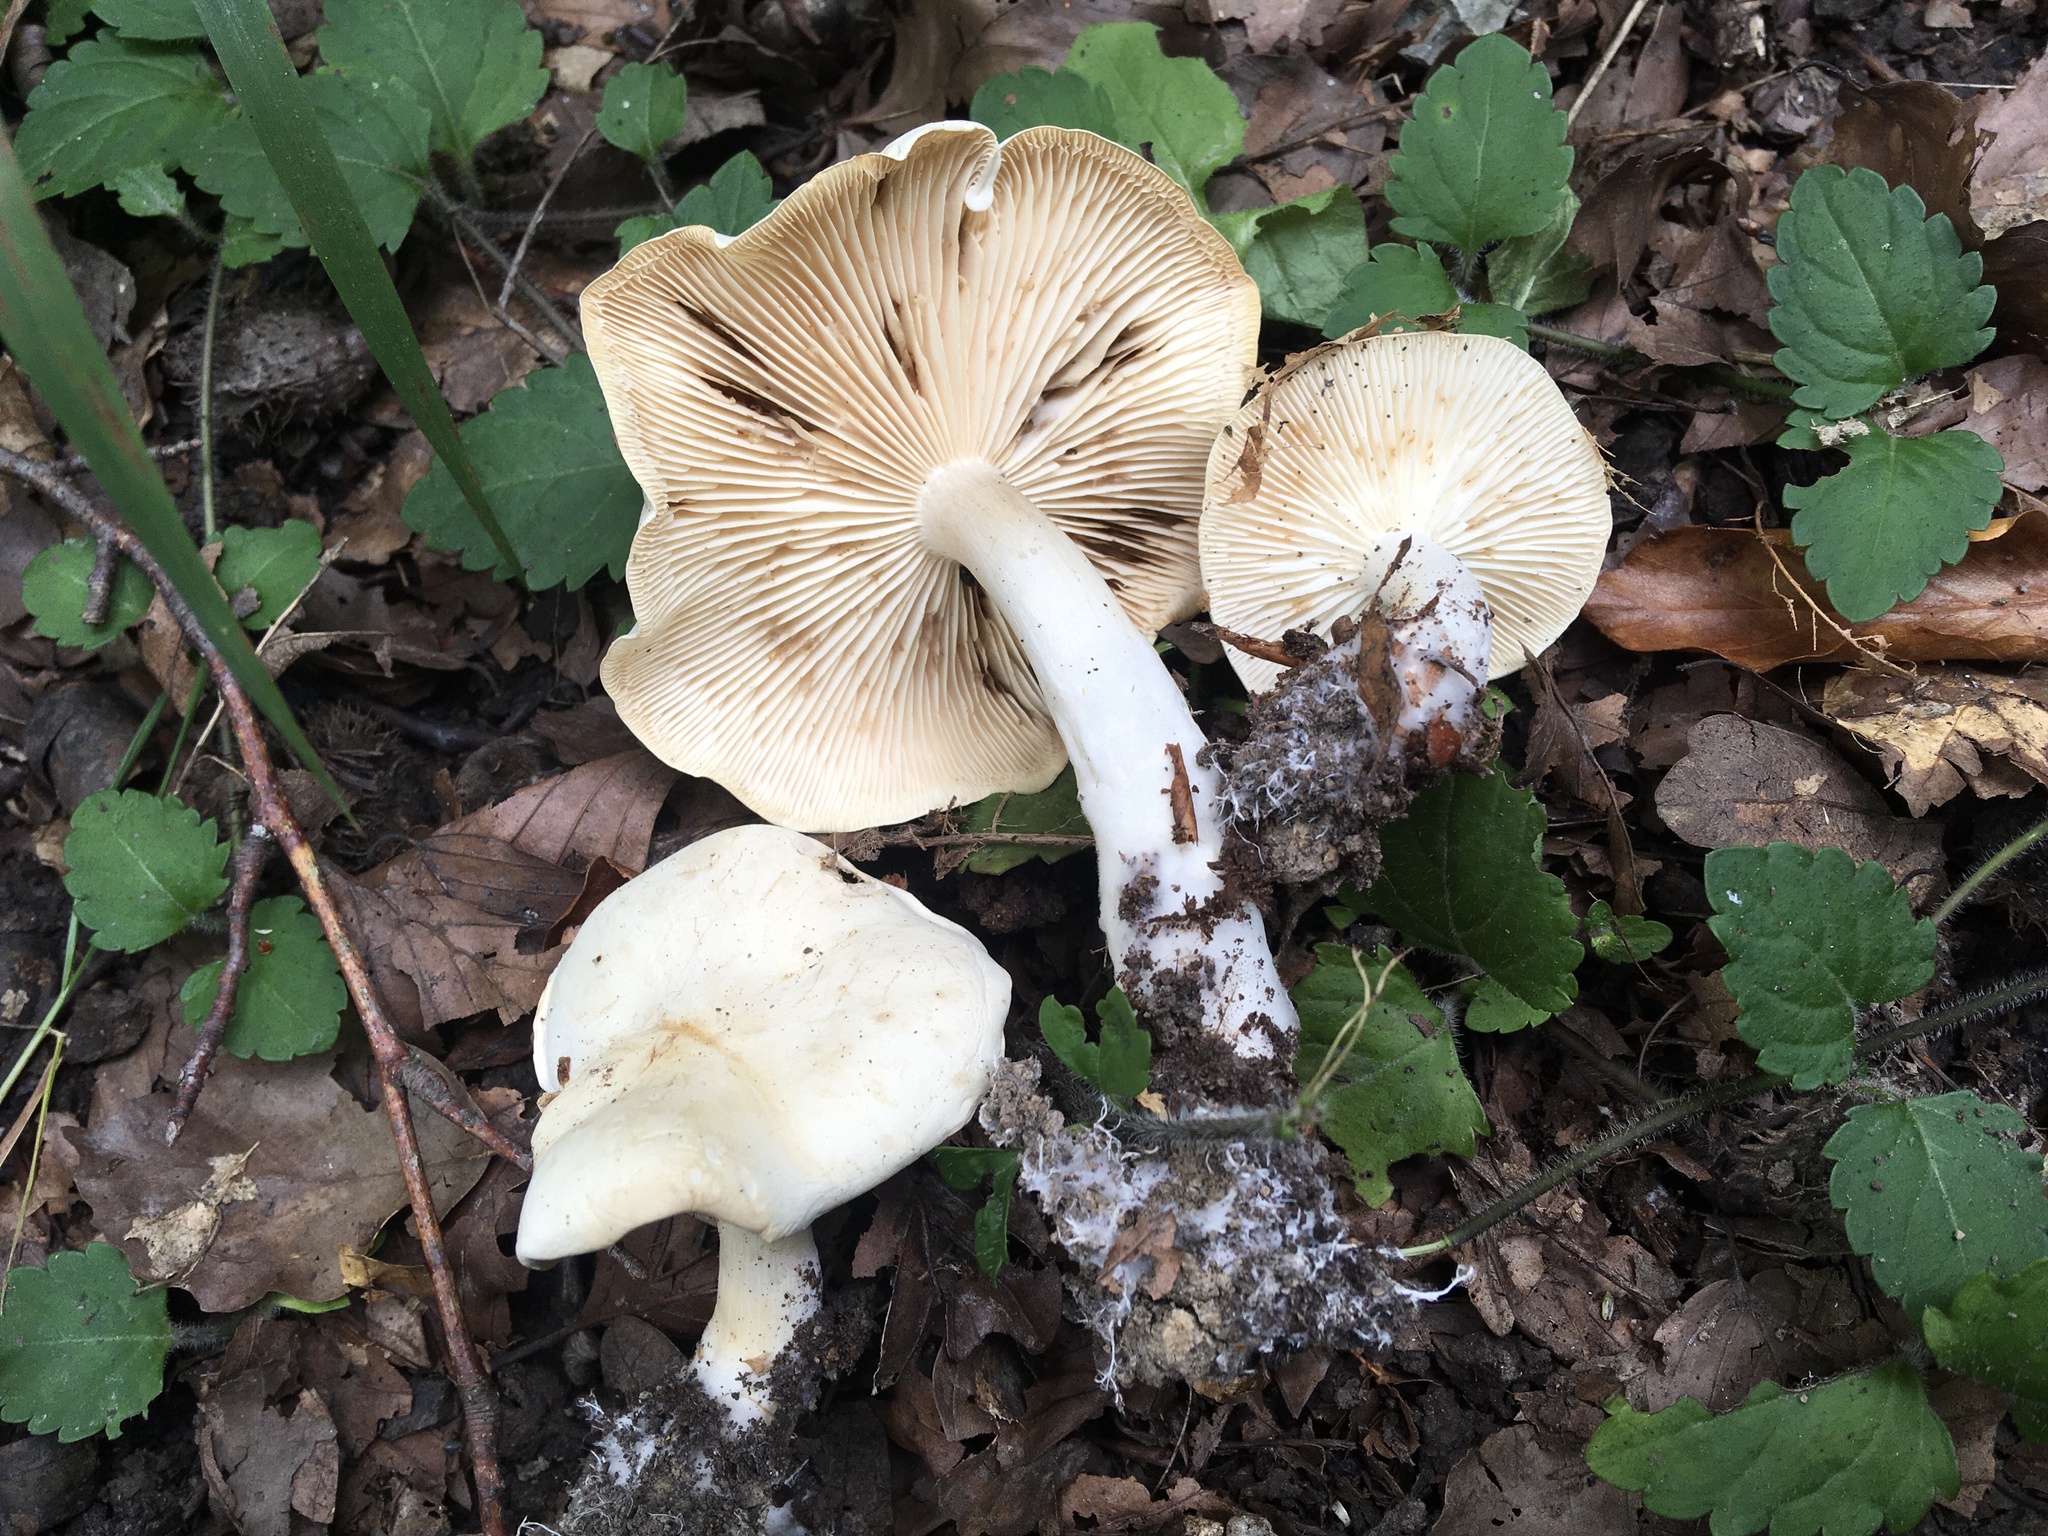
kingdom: Fungi
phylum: Basidiomycota
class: Agaricomycetes
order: Agaricales
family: Tricholomataceae
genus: Tricholoma
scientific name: Tricholoma lascivum
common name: Aromatic knight
